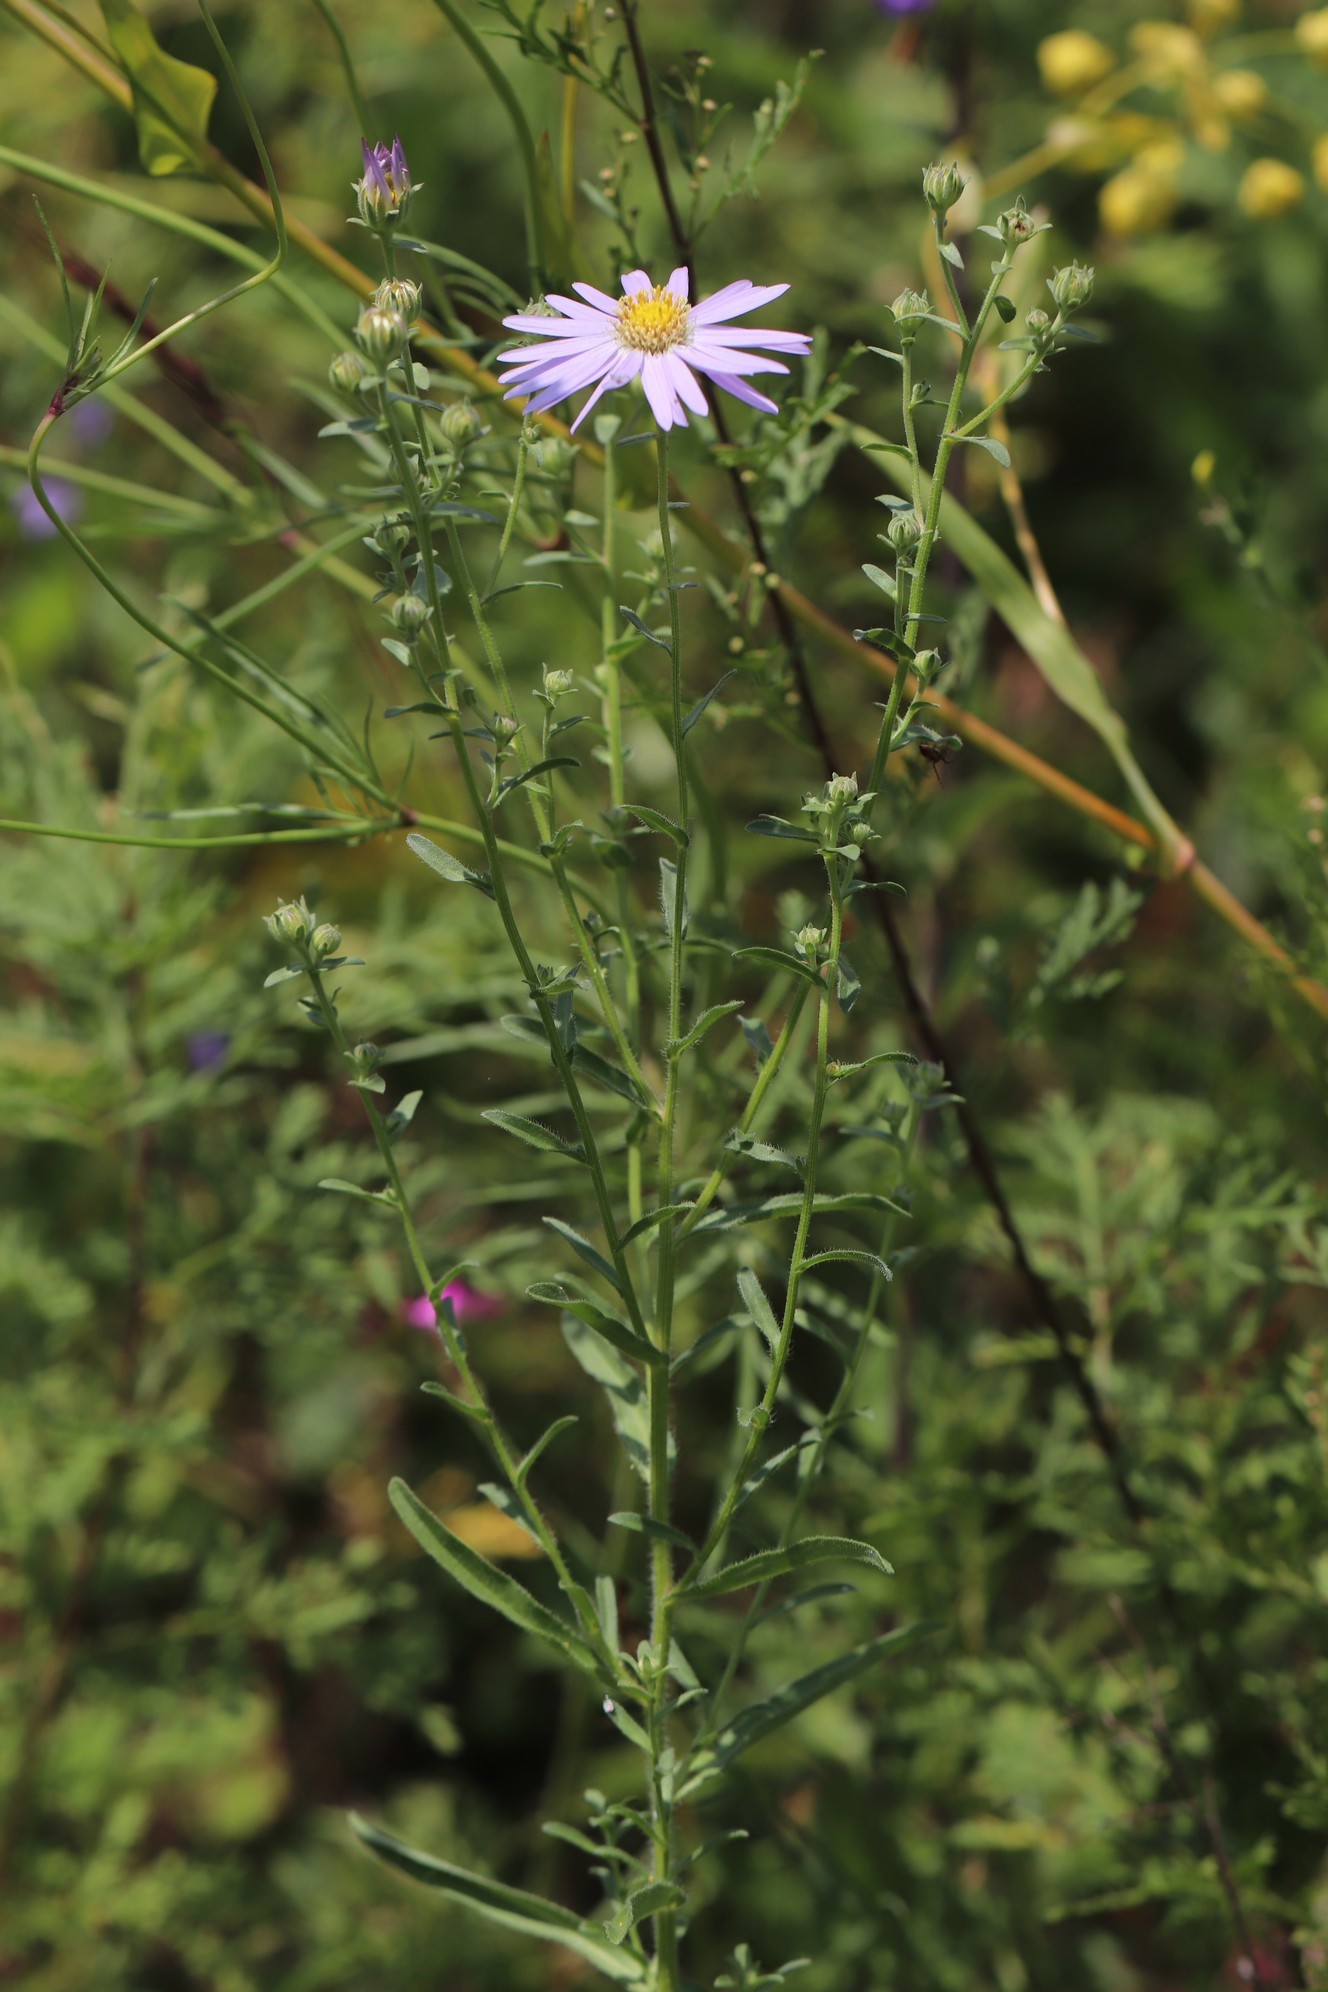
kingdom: Plantae
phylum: Tracheophyta
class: Magnoliopsida
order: Asterales
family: Asteraceae
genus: Heteropappus
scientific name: Heteropappus altaicus
